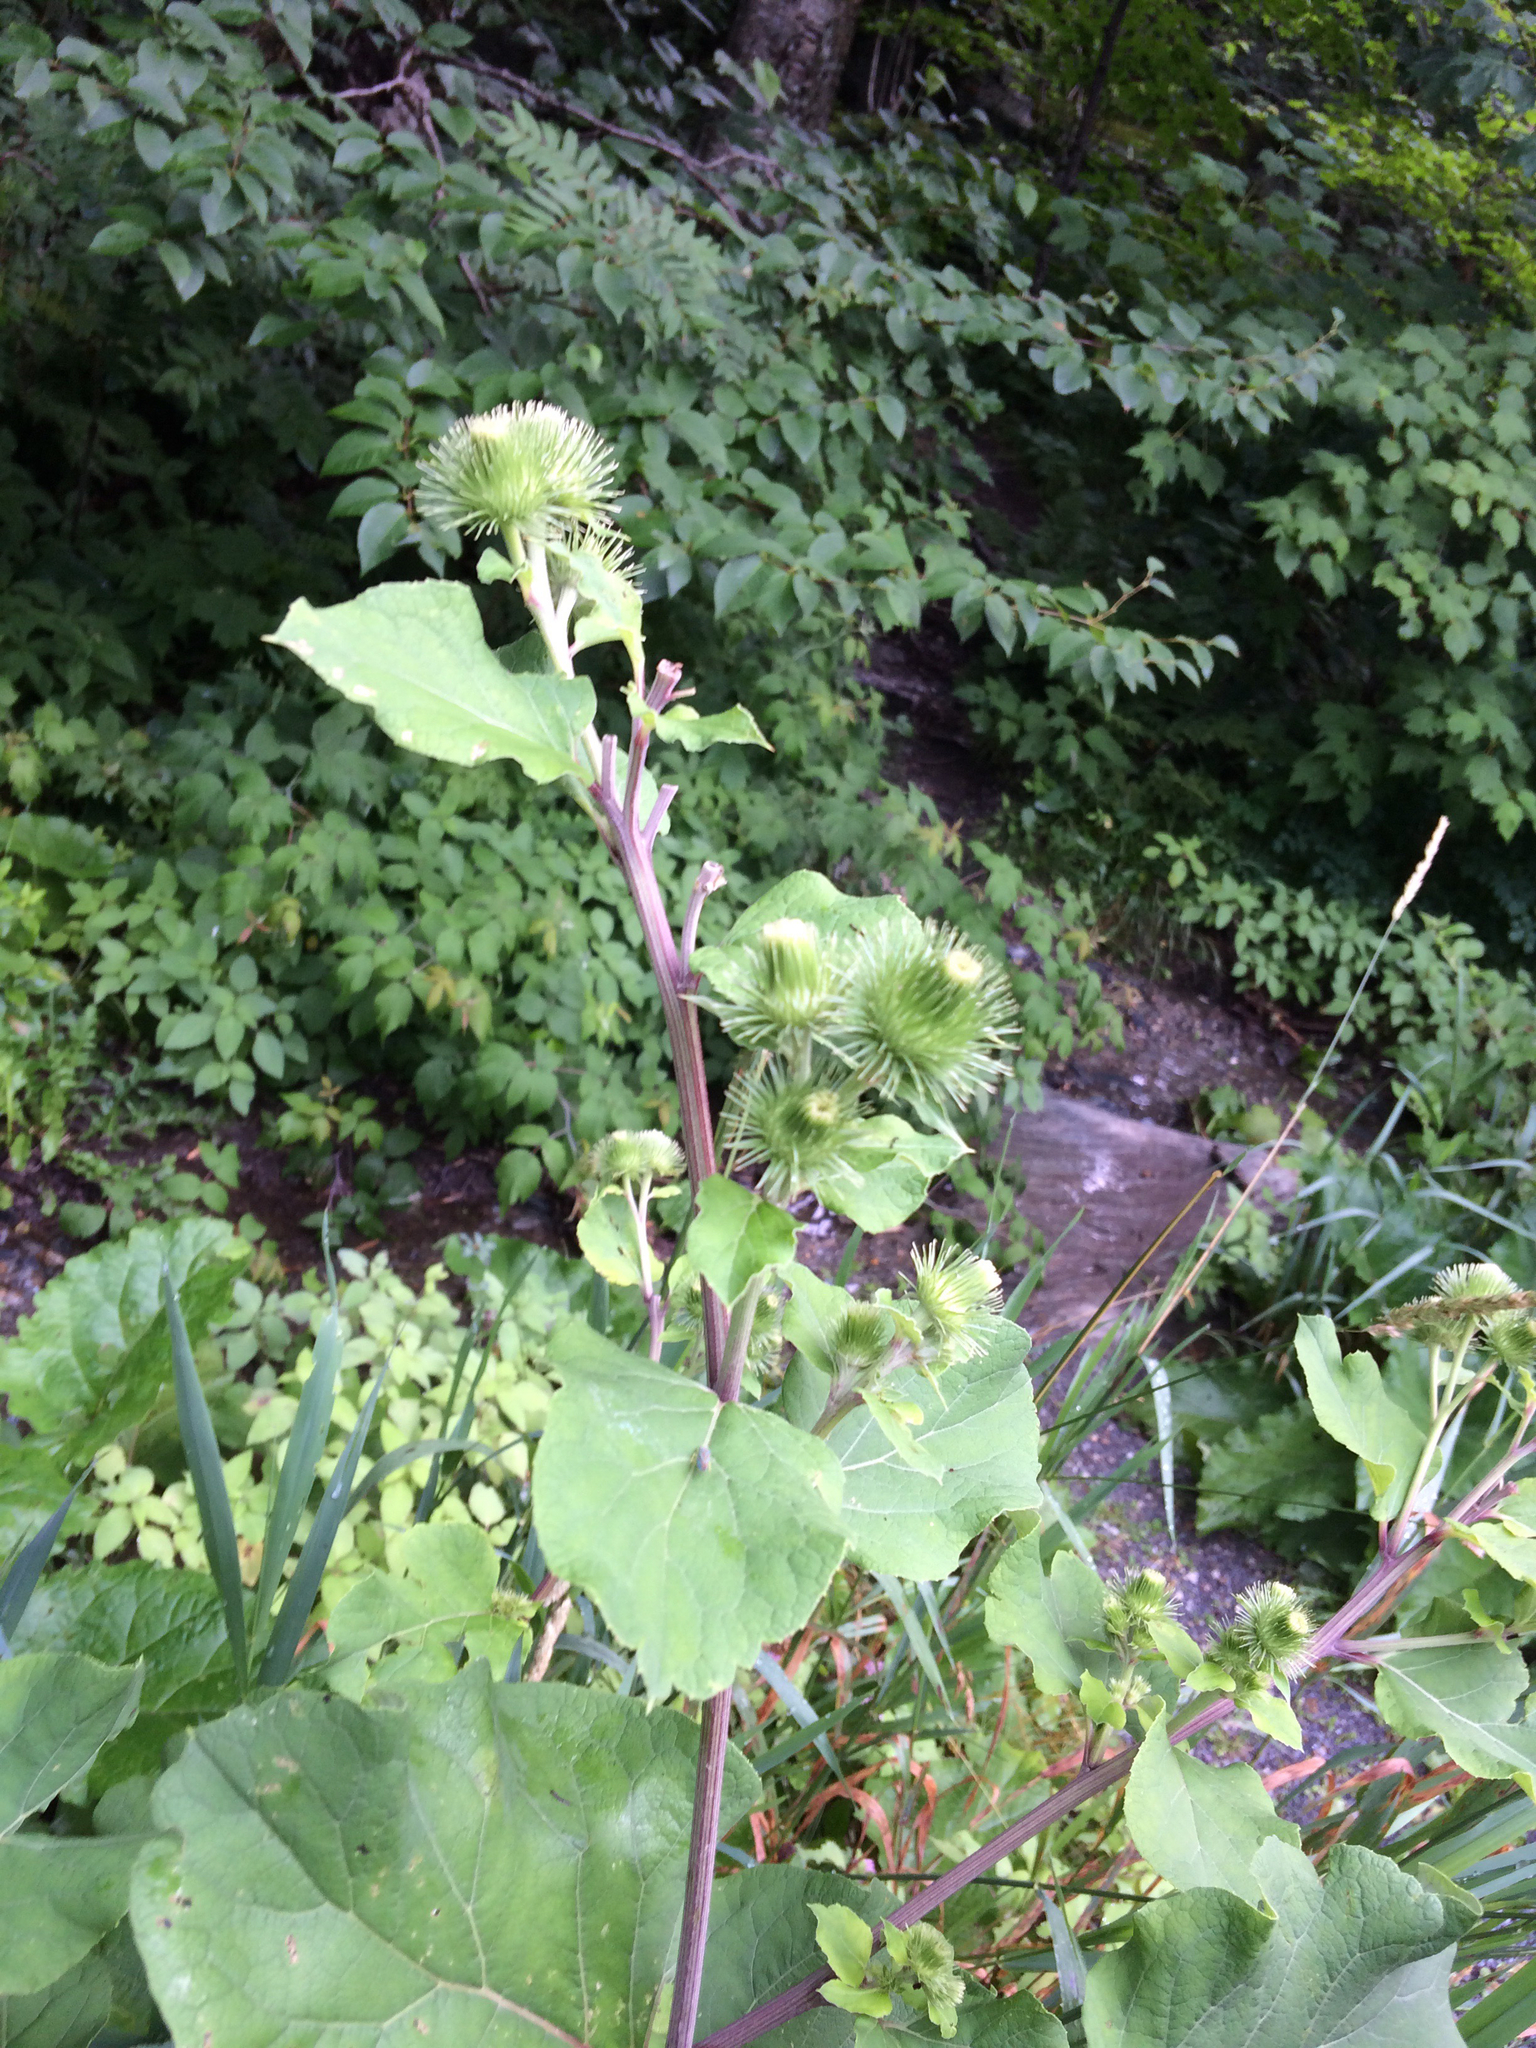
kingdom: Plantae
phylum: Tracheophyta
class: Magnoliopsida
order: Asterales
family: Asteraceae
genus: Arctium
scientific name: Arctium minus
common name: Lesser burdock
